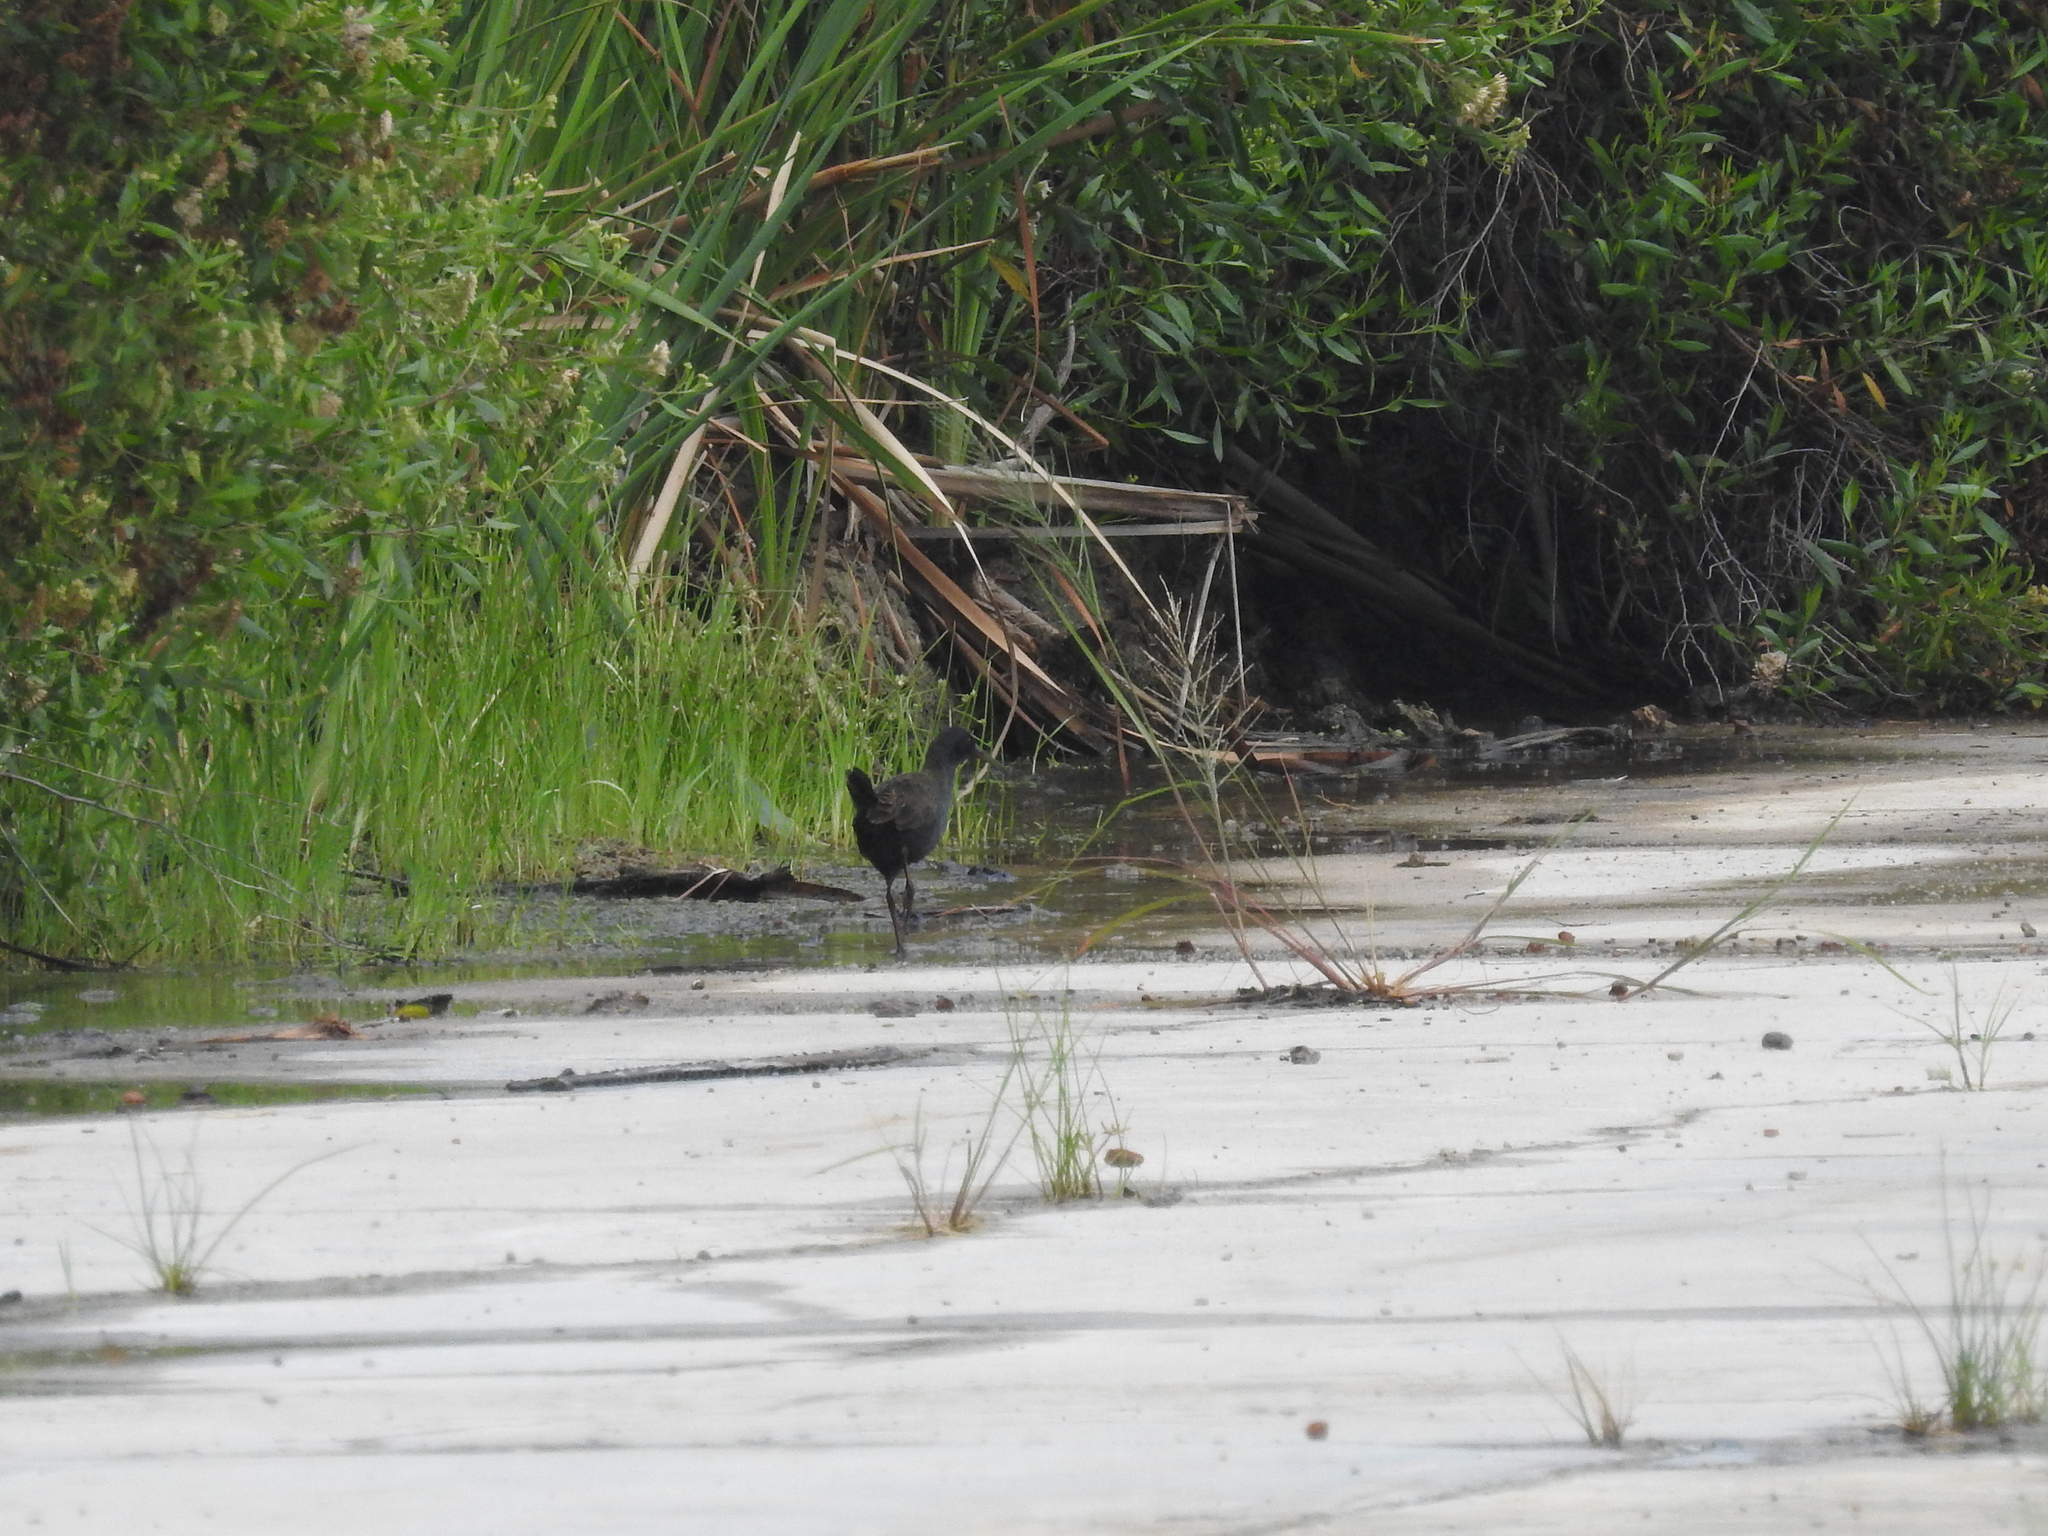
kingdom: Animalia
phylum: Chordata
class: Aves
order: Gruiformes
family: Rallidae
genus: Pardirallus
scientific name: Pardirallus sanguinolentus
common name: Plumbeous rail
